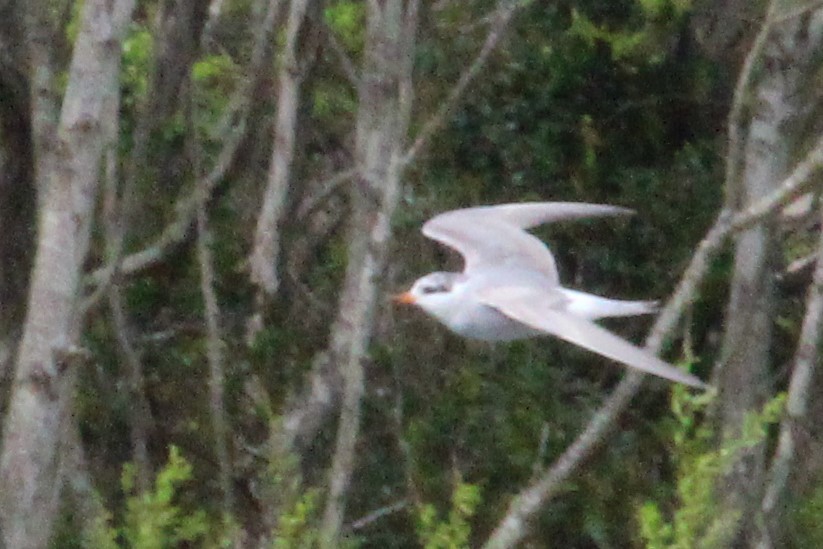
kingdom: Animalia
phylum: Chordata
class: Aves
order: Charadriiformes
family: Laridae
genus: Chlidonias
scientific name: Chlidonias albostriatus
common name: Black-fronted tern
